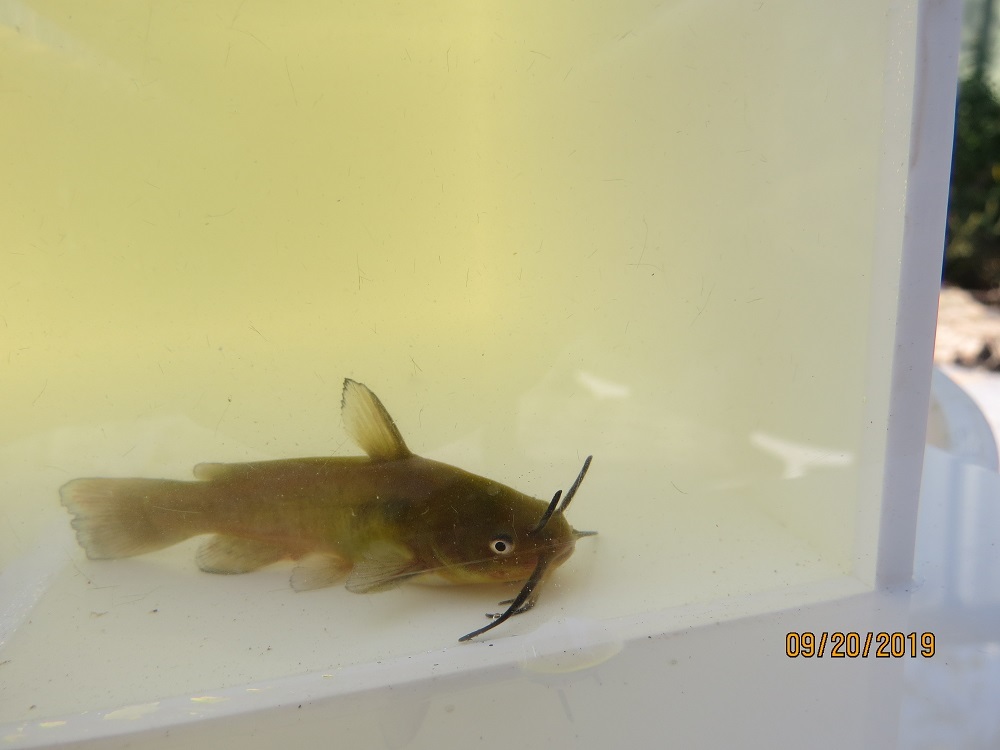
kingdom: Animalia
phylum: Chordata
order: Siluriformes
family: Ictaluridae
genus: Ameiurus
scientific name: Ameiurus nebulosus
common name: Brown bullhead
